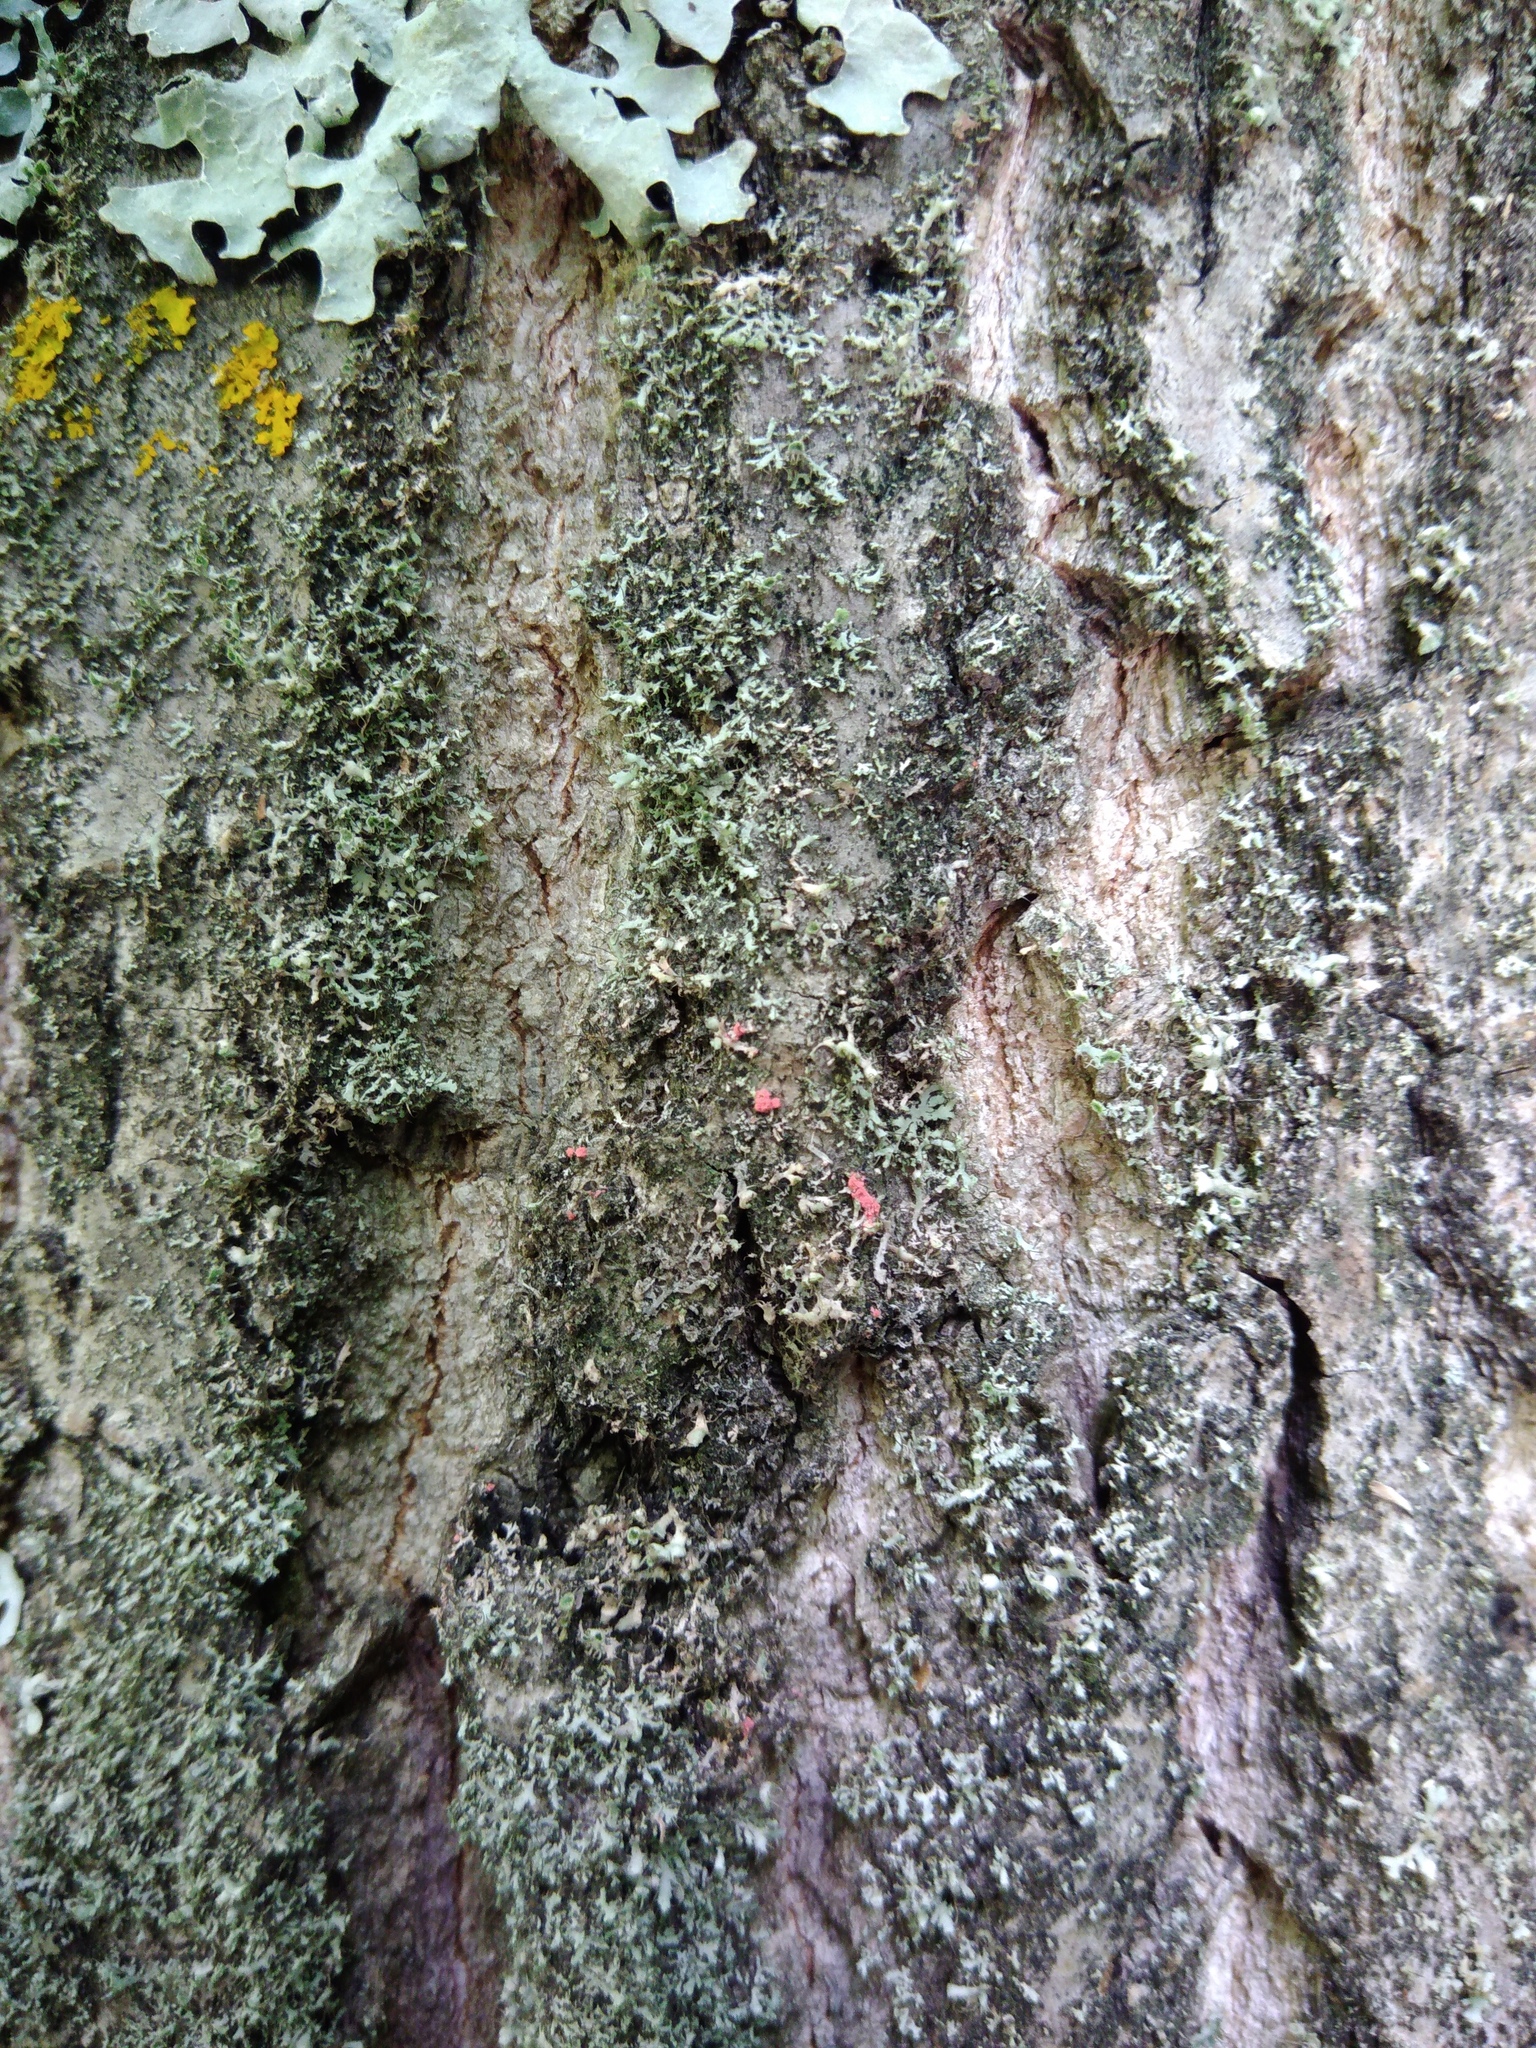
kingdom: Fungi
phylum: Ascomycota
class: Sordariomycetes
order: Hypocreales
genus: Illosporiopsis
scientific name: Illosporiopsis christiansenii
